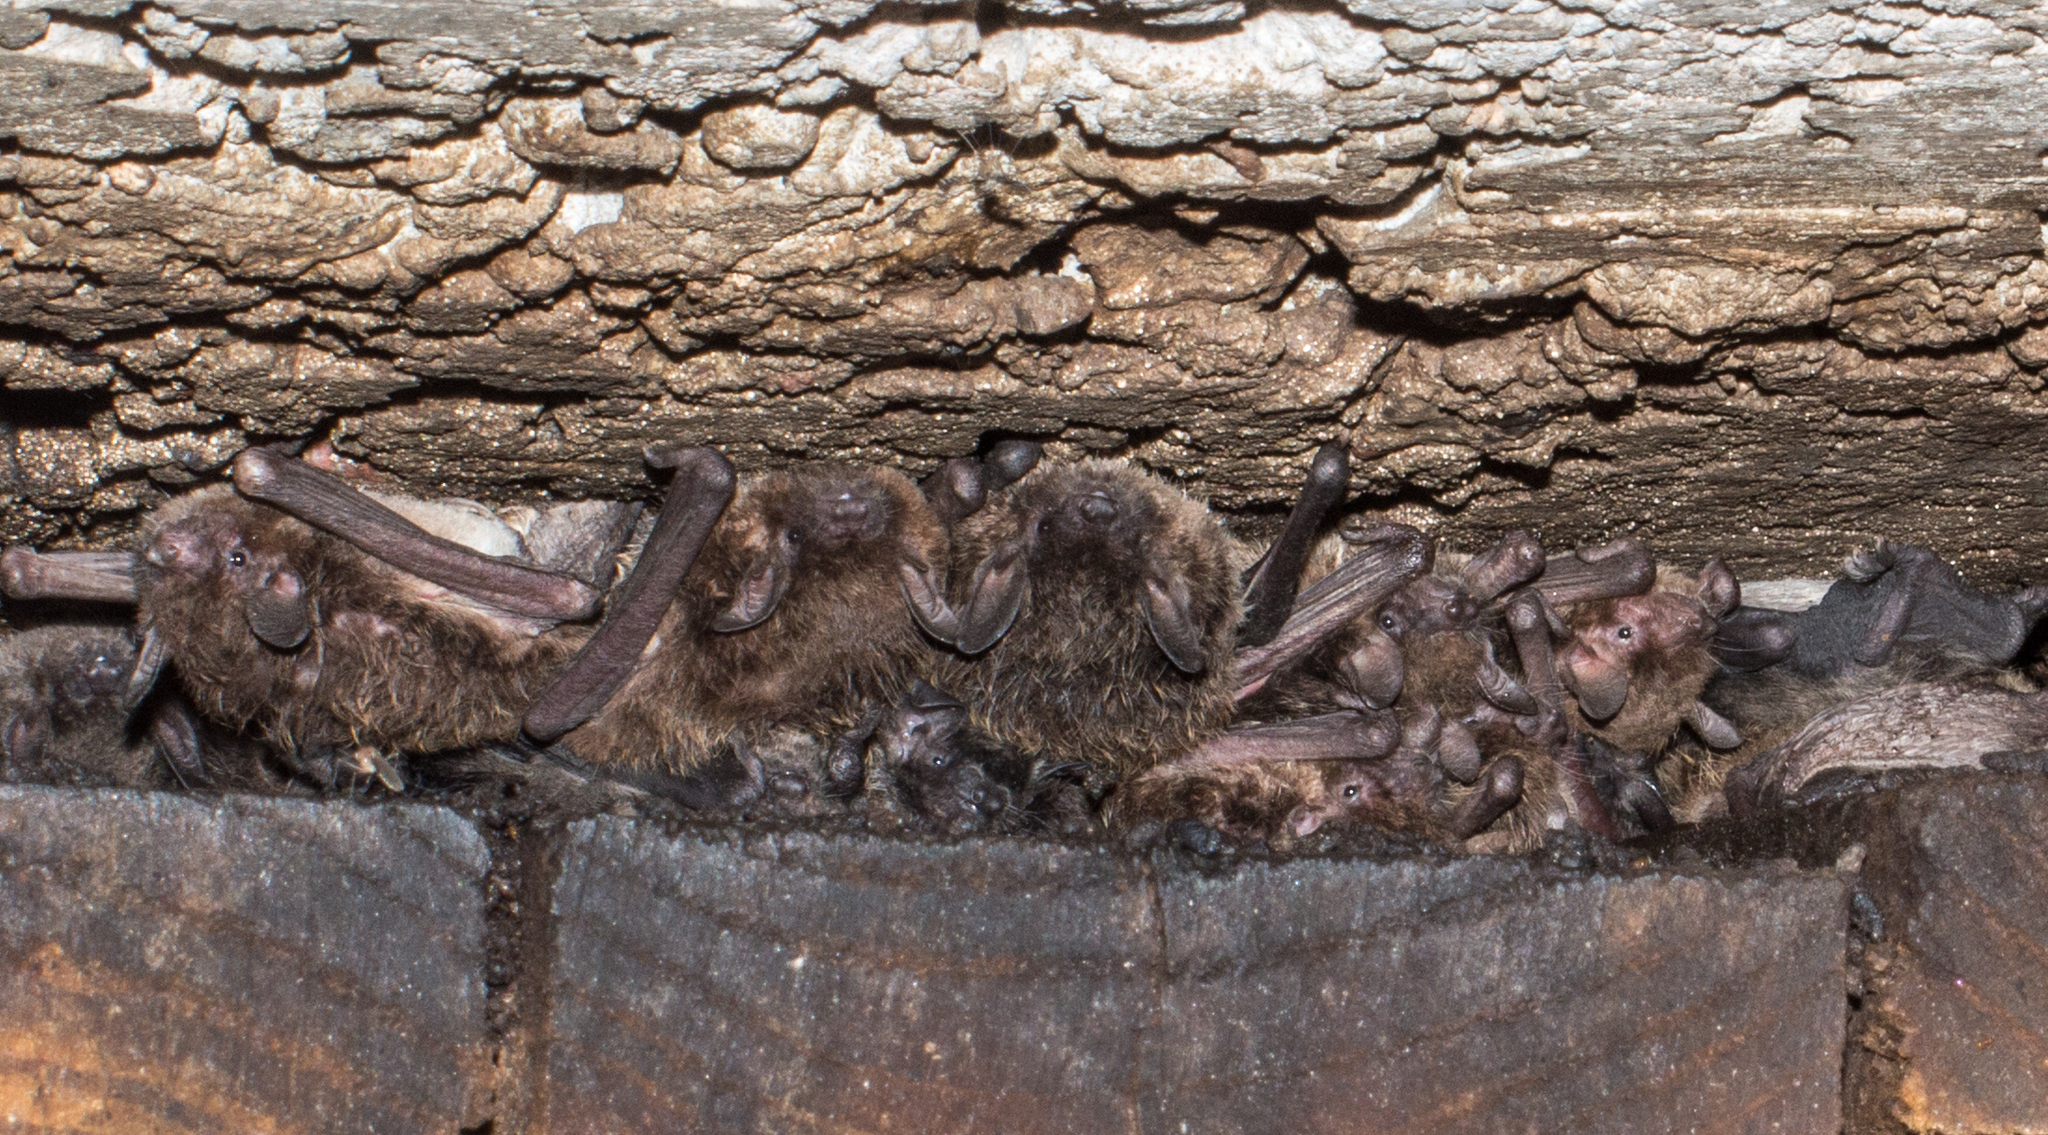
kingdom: Animalia
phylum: Chordata
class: Mammalia
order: Chiroptera
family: Vespertilionidae
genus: Myotis
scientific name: Myotis levis
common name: Yellowish myotis
